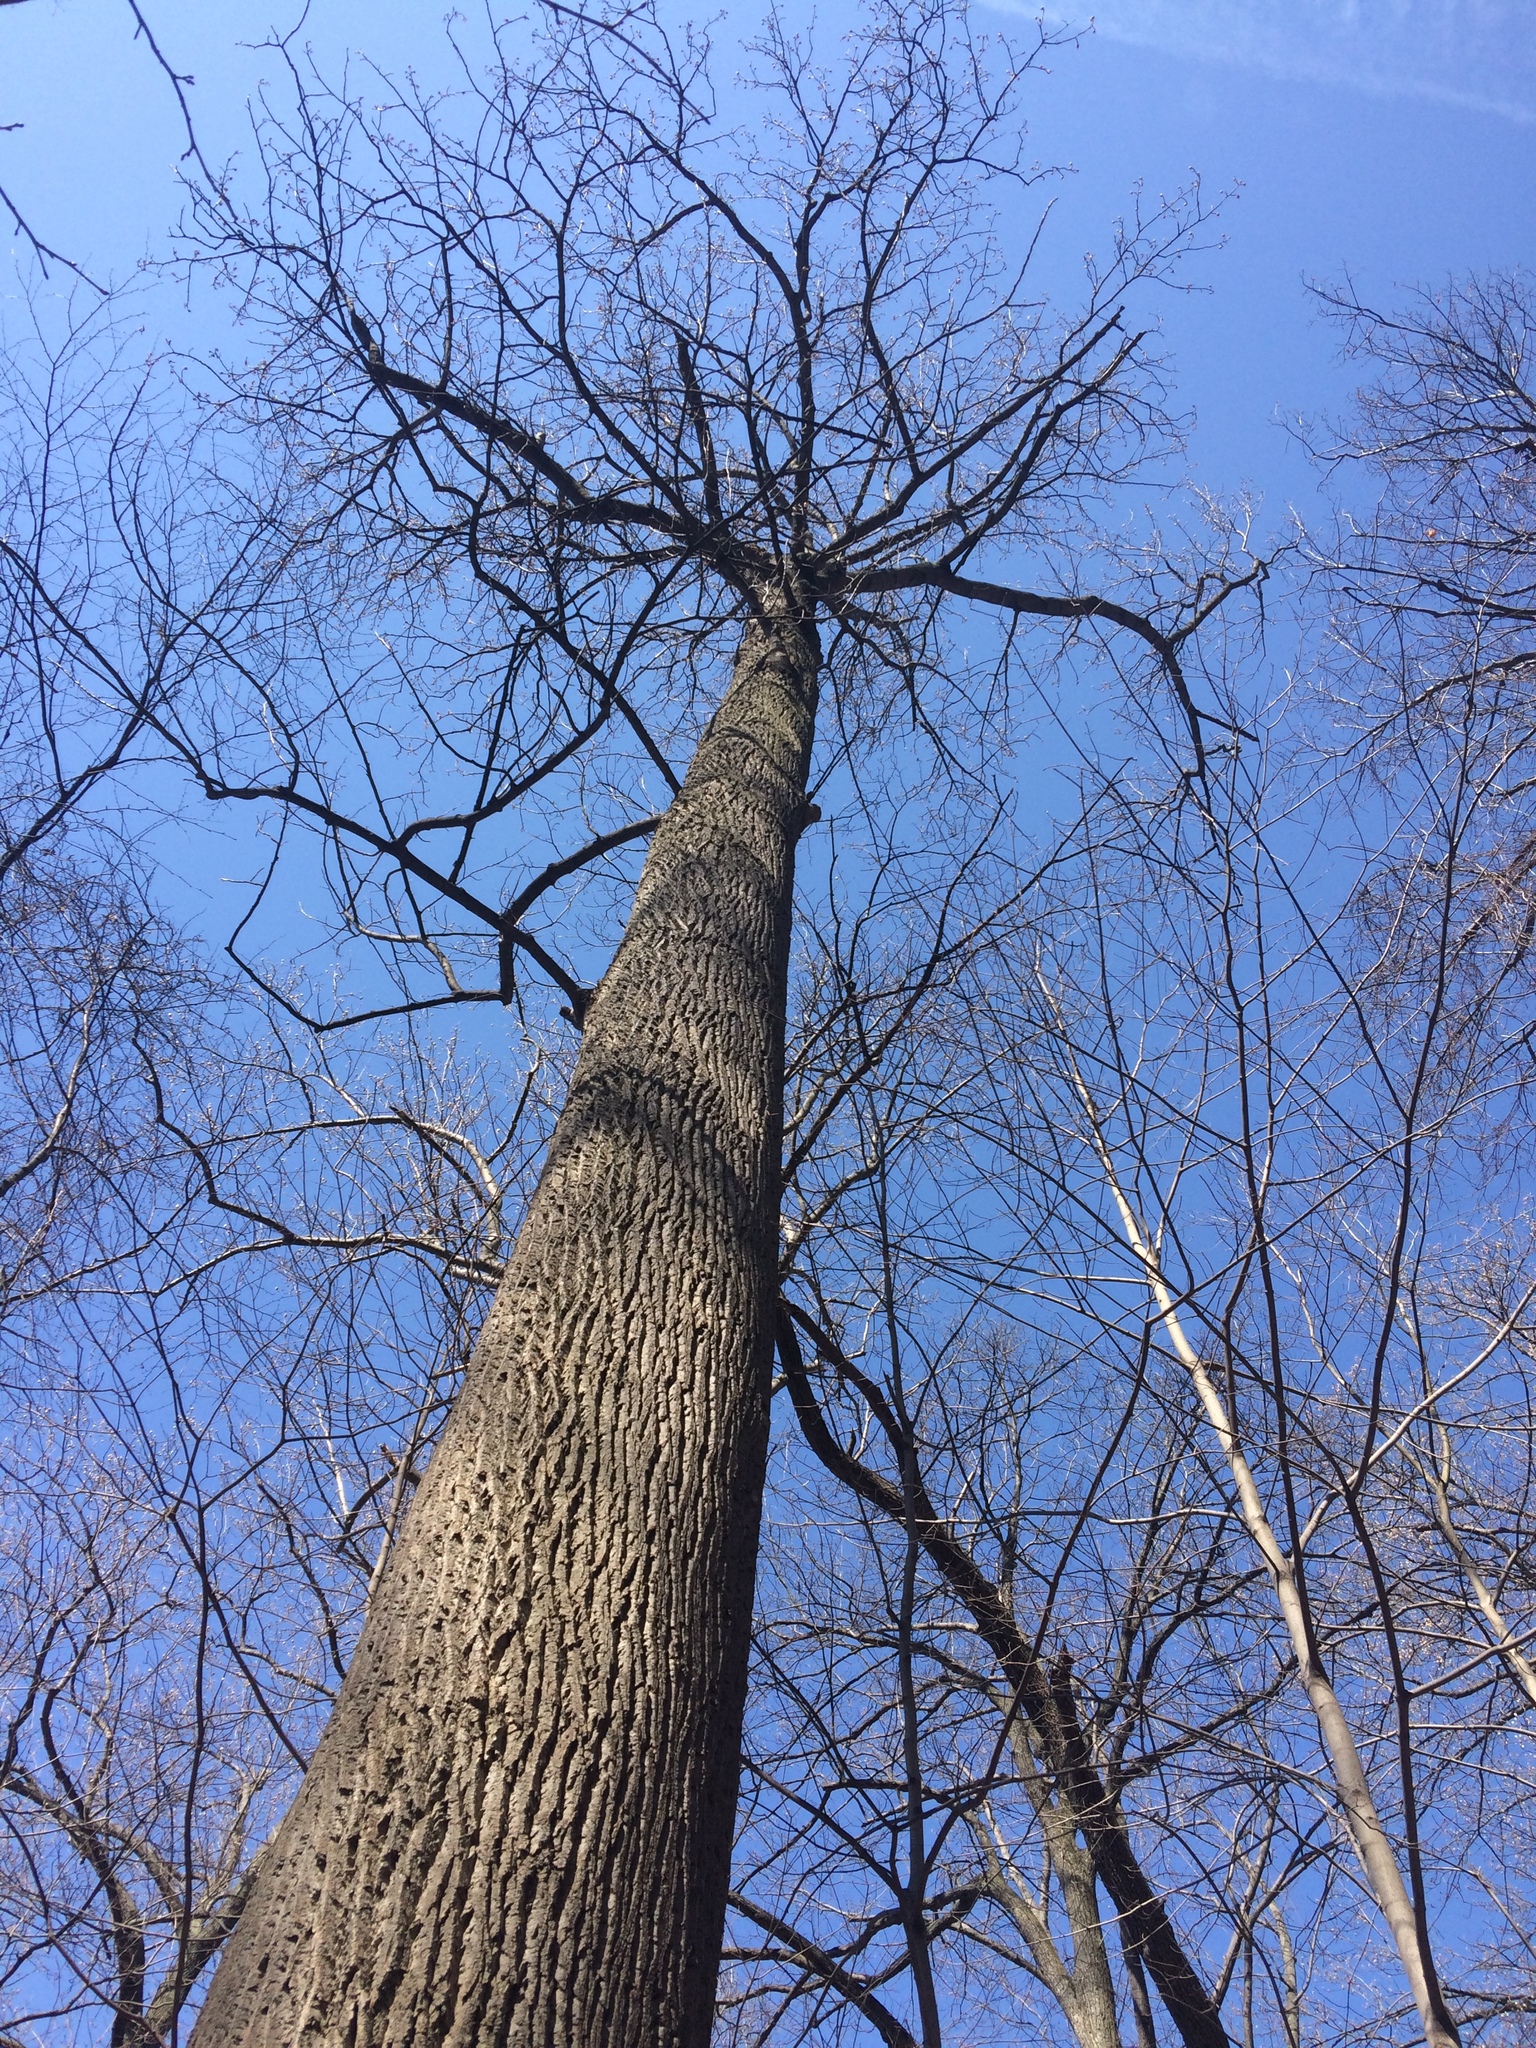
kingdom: Plantae
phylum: Tracheophyta
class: Magnoliopsida
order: Magnoliales
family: Magnoliaceae
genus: Liriodendron
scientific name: Liriodendron tulipifera
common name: Tulip tree
